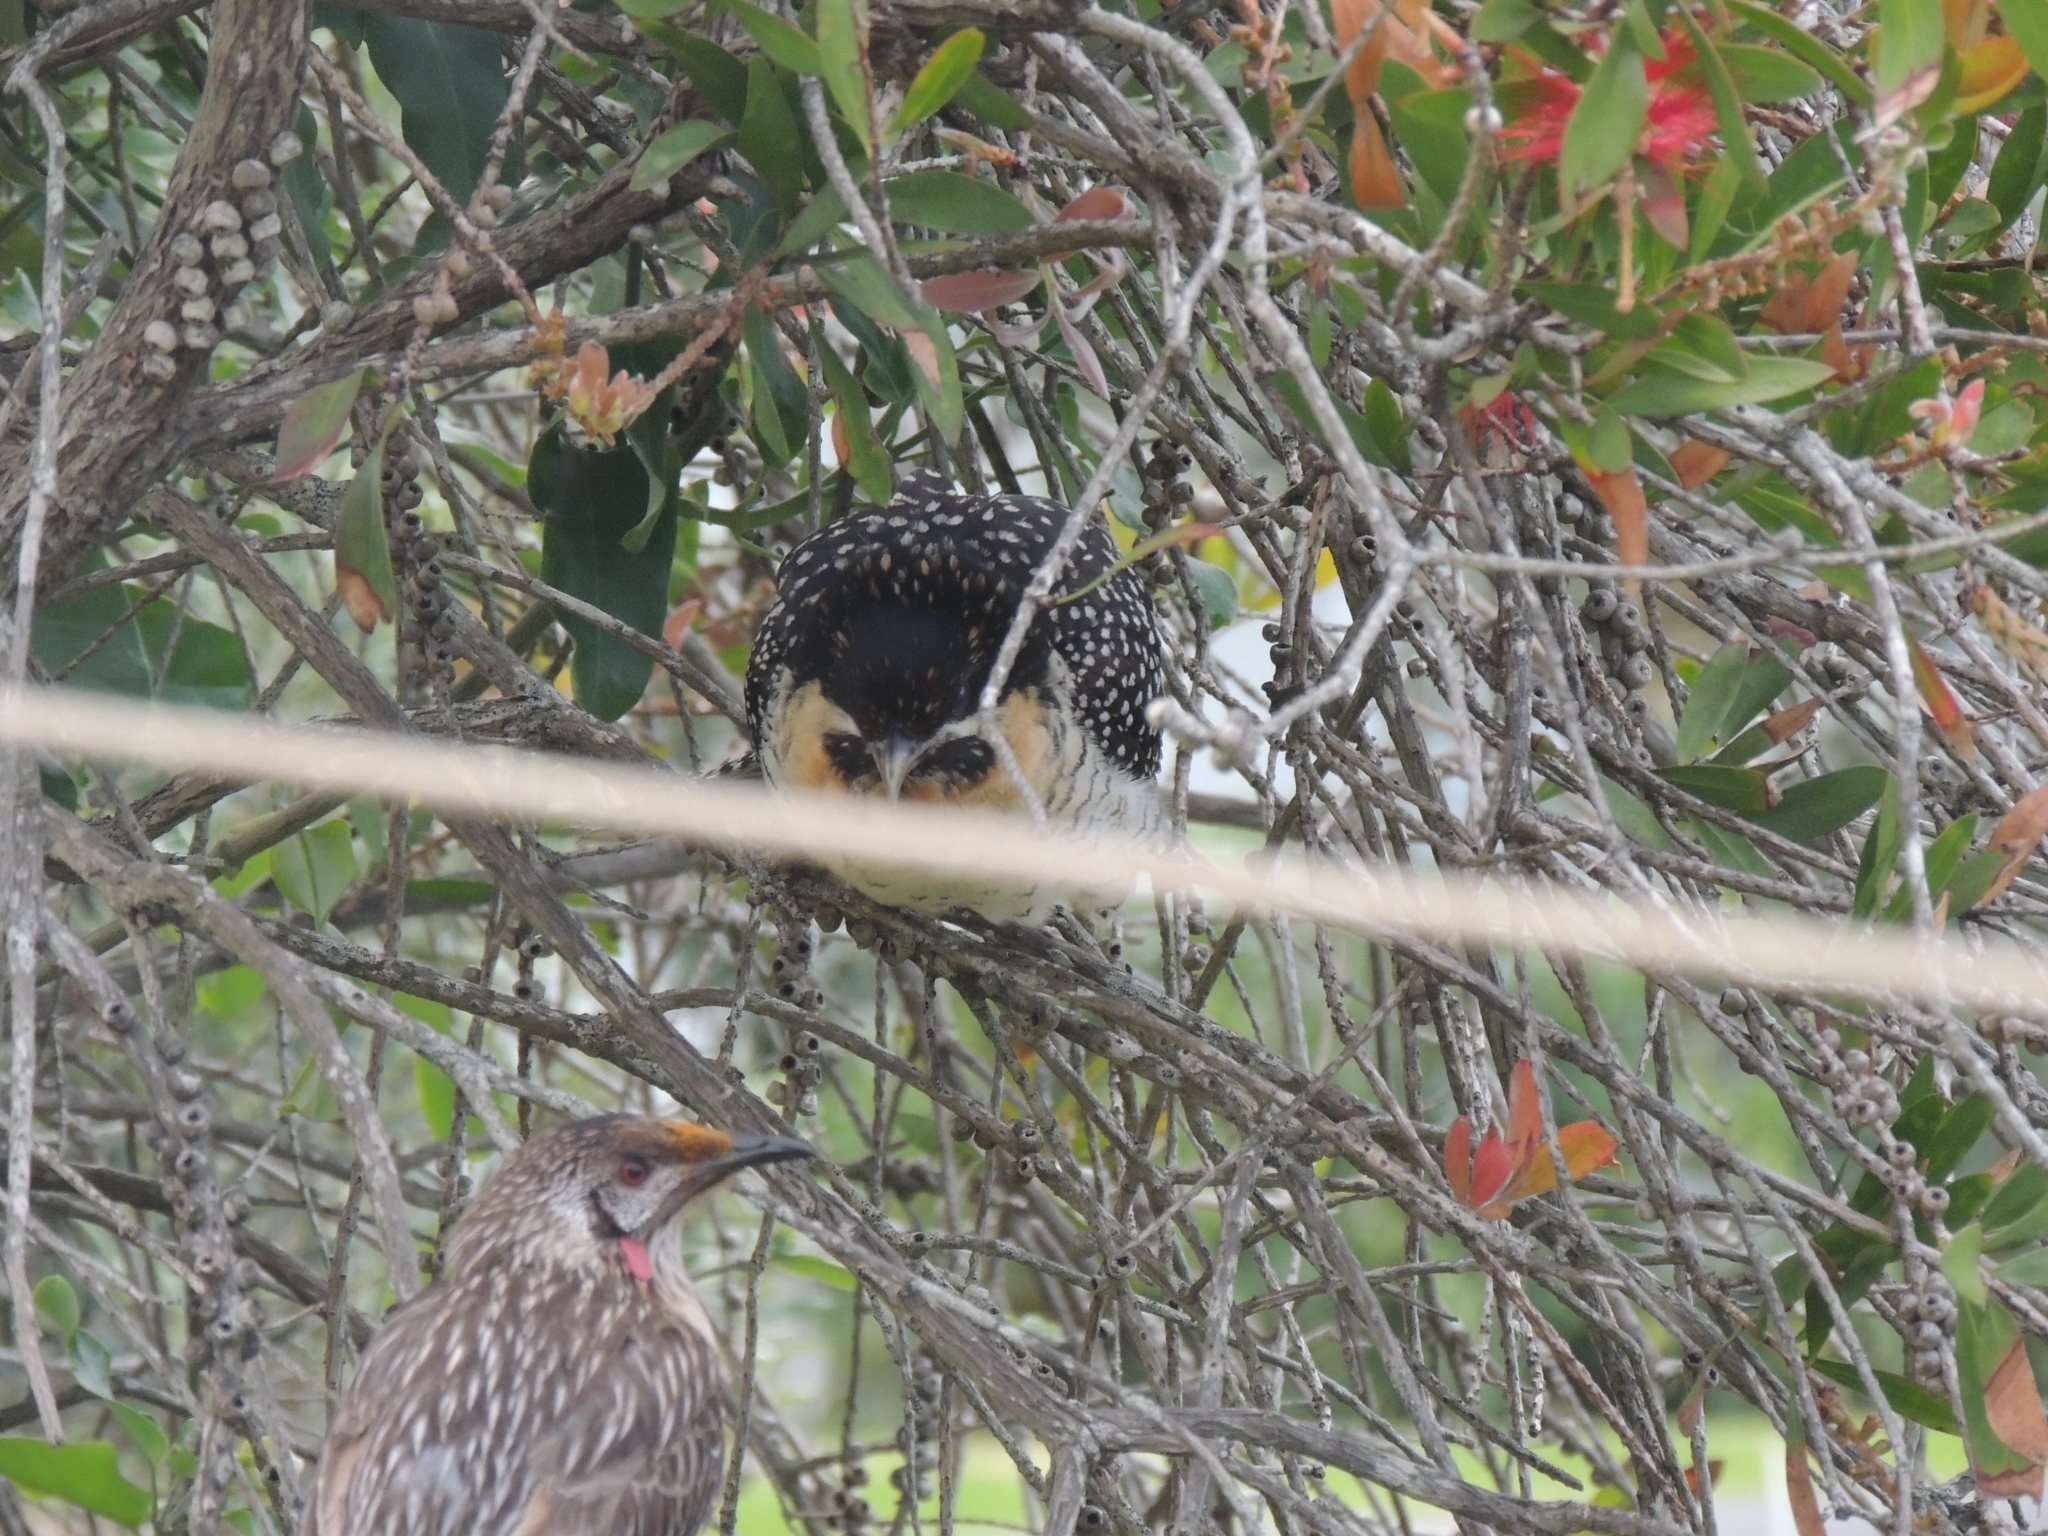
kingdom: Animalia
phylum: Chordata
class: Aves
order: Passeriformes
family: Meliphagidae
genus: Anthochaera
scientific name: Anthochaera carunculata
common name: Red wattlebird
